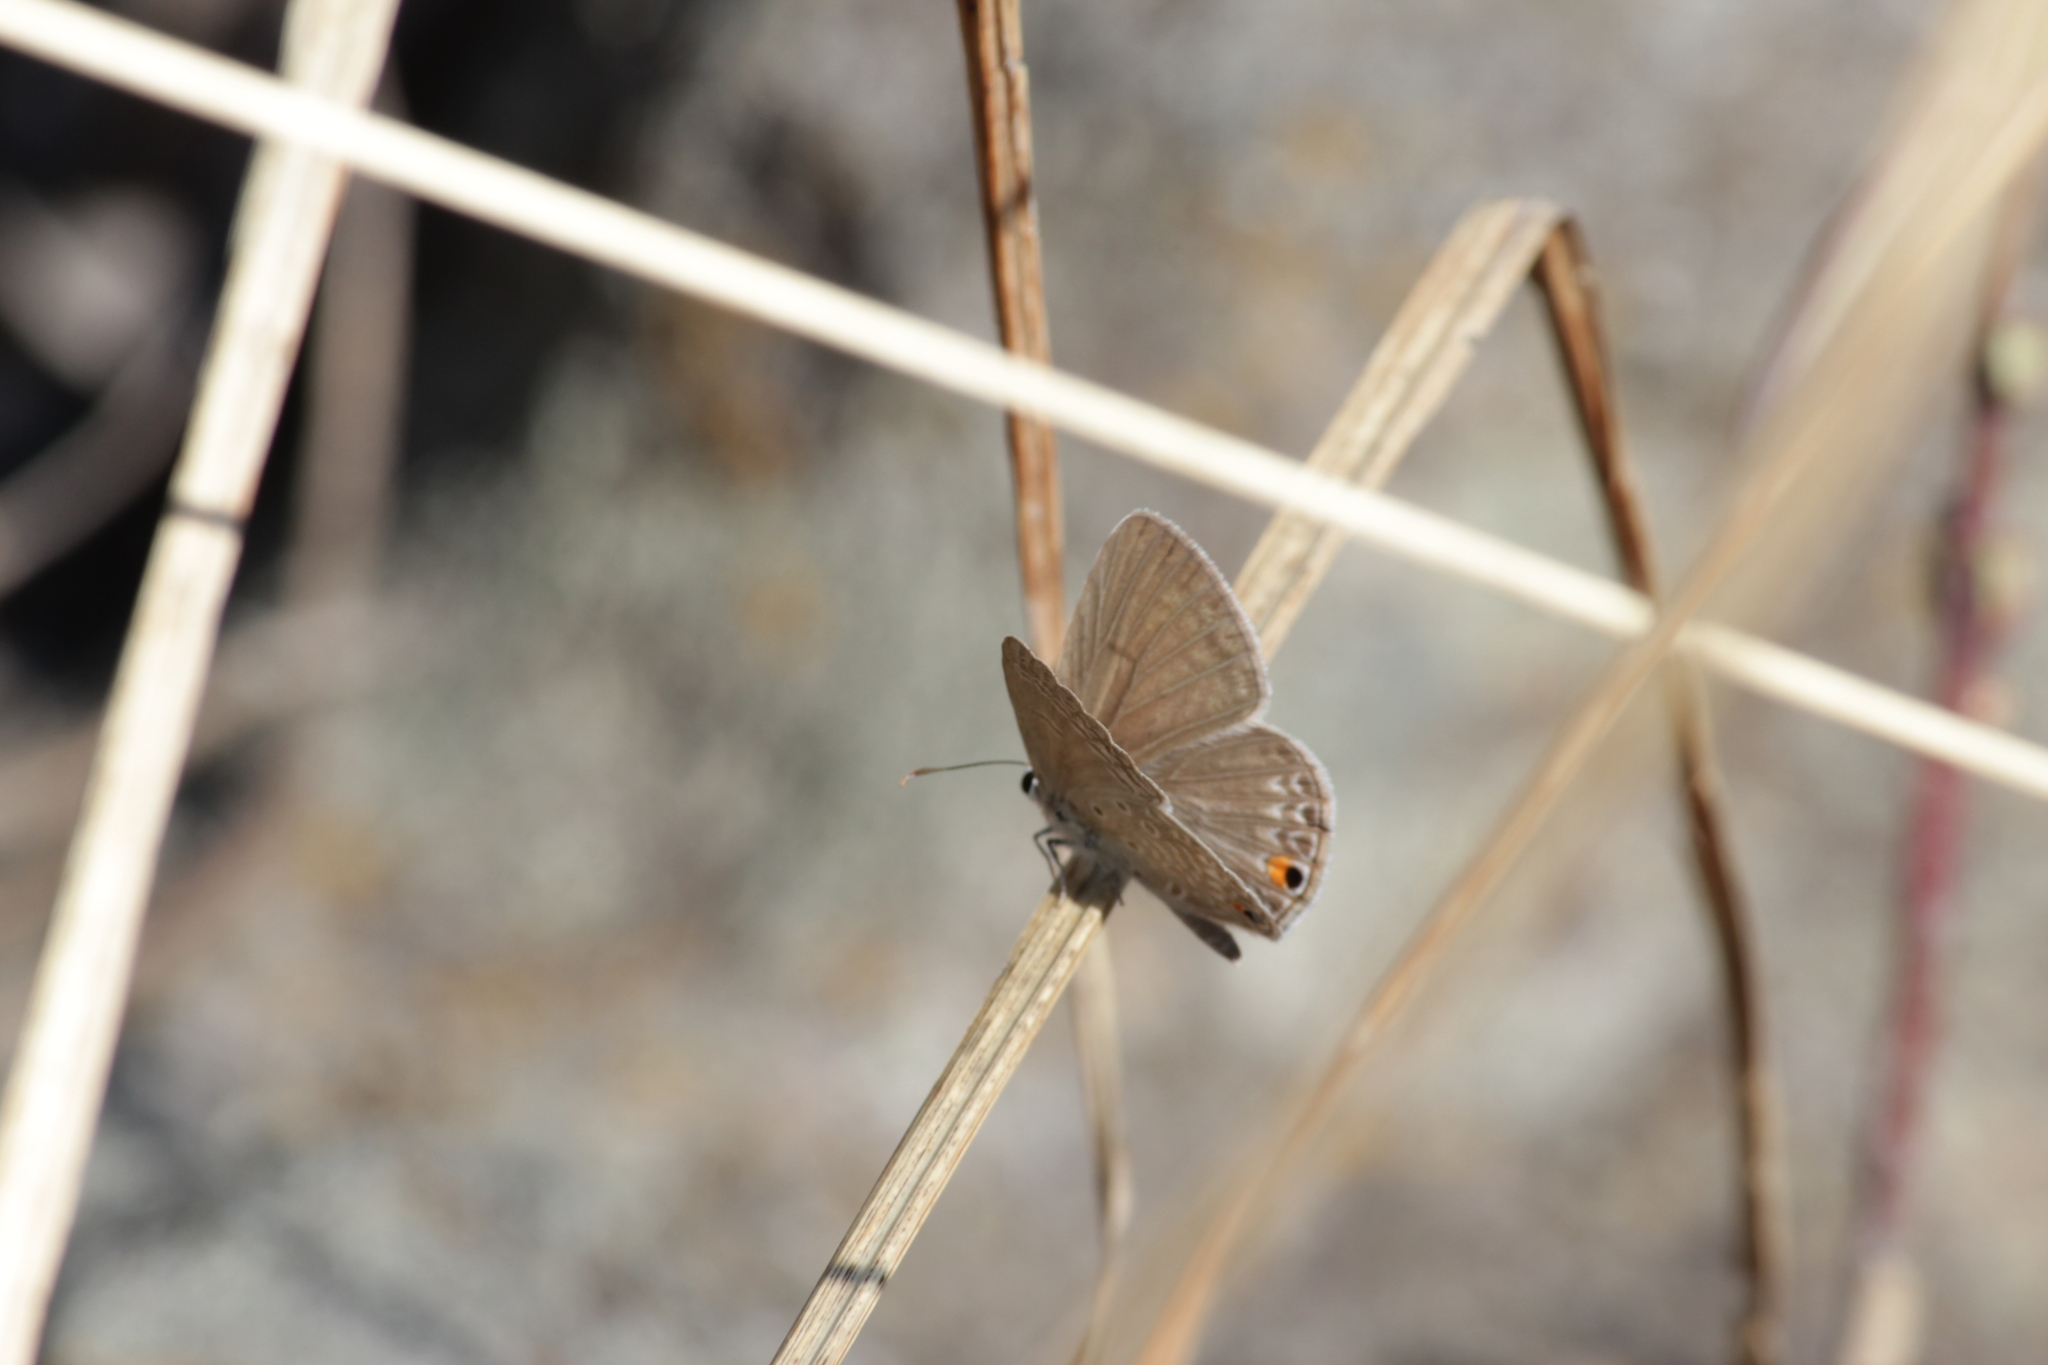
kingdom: Animalia
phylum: Arthropoda
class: Insecta
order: Lepidoptera
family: Lycaenidae
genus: Euchrysops
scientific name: Euchrysops malathana
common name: Common smoky blue
